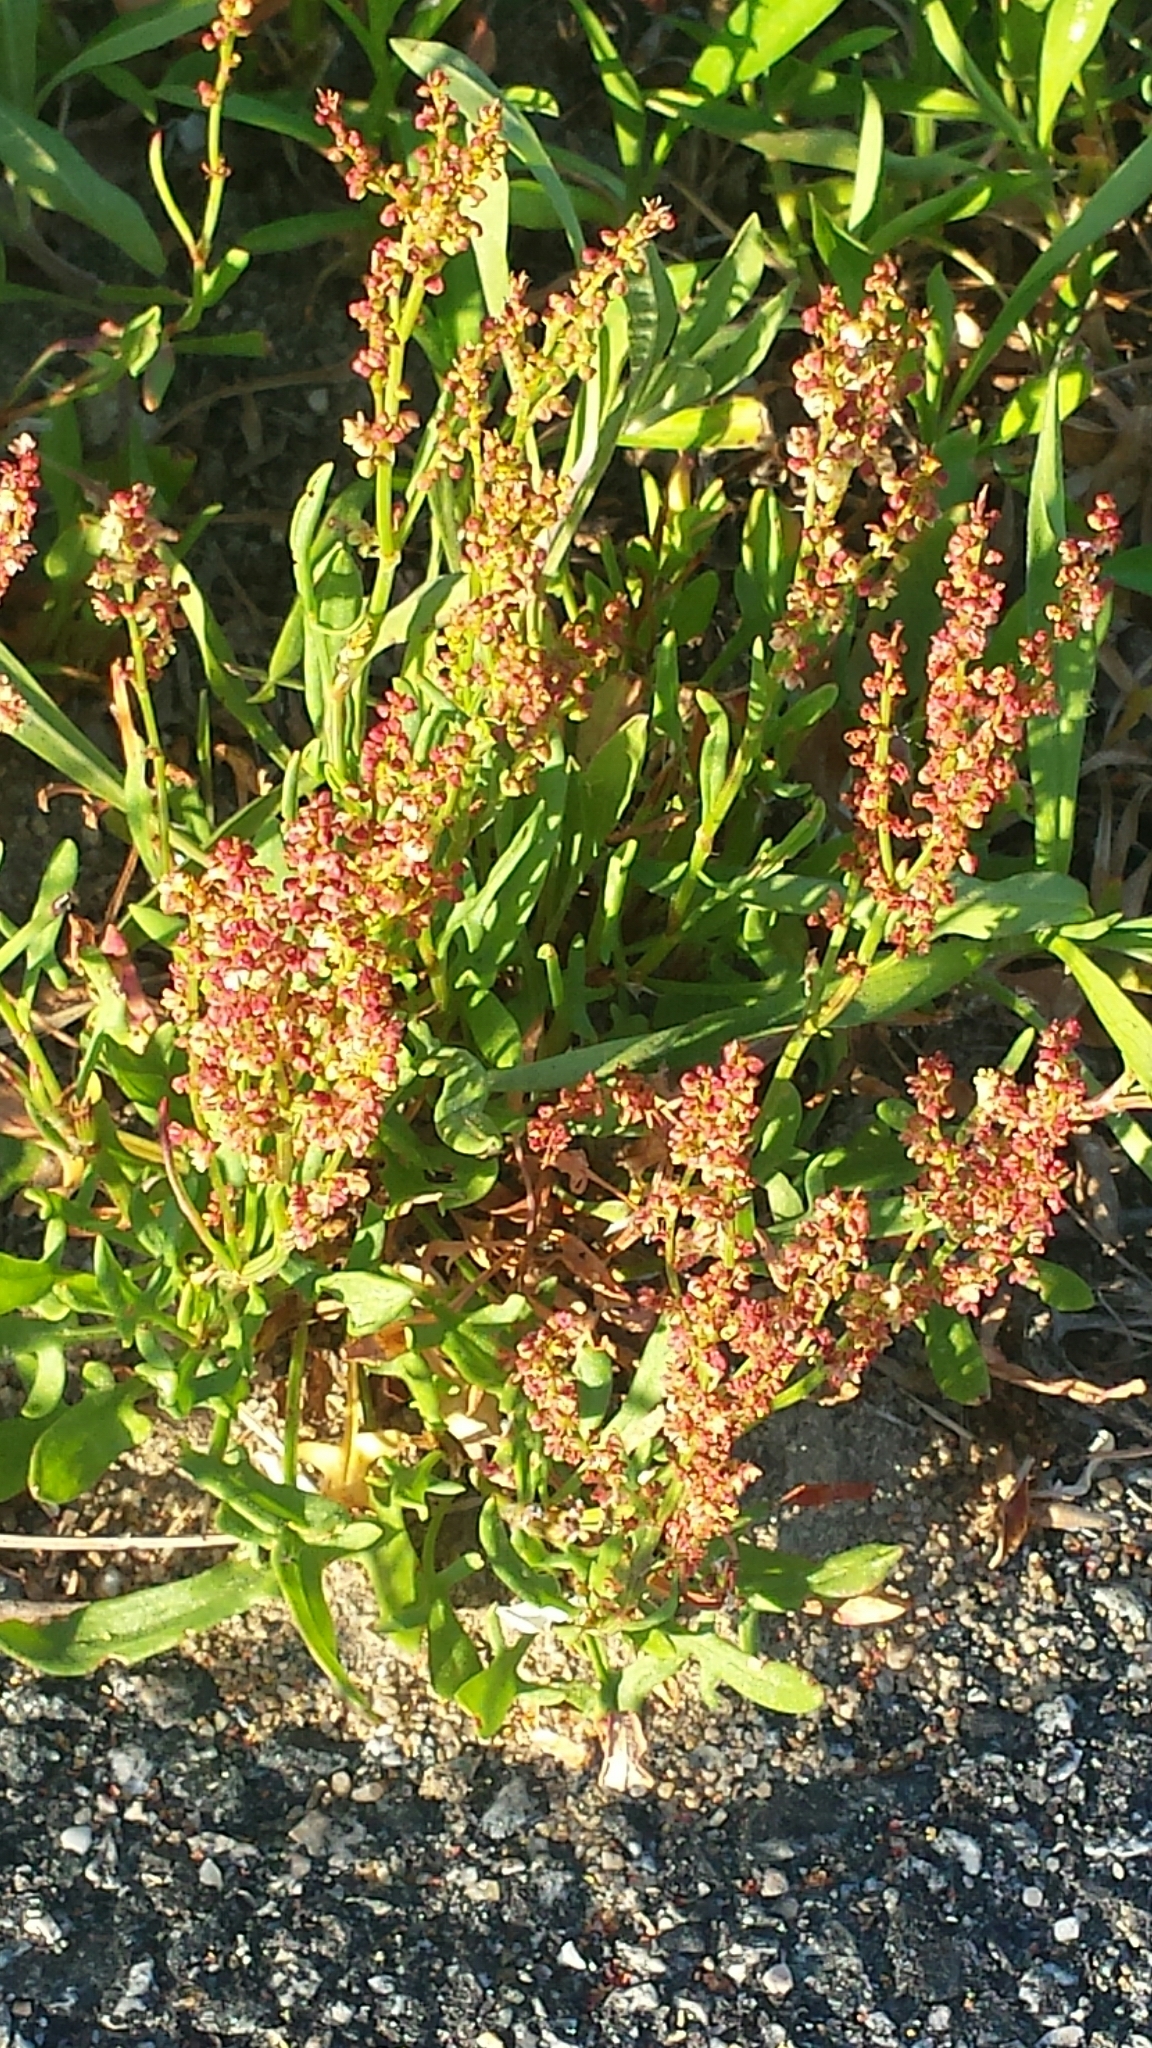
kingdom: Plantae
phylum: Tracheophyta
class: Magnoliopsida
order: Caryophyllales
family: Polygonaceae
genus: Rumex
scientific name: Rumex acetosella
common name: Common sheep sorrel
